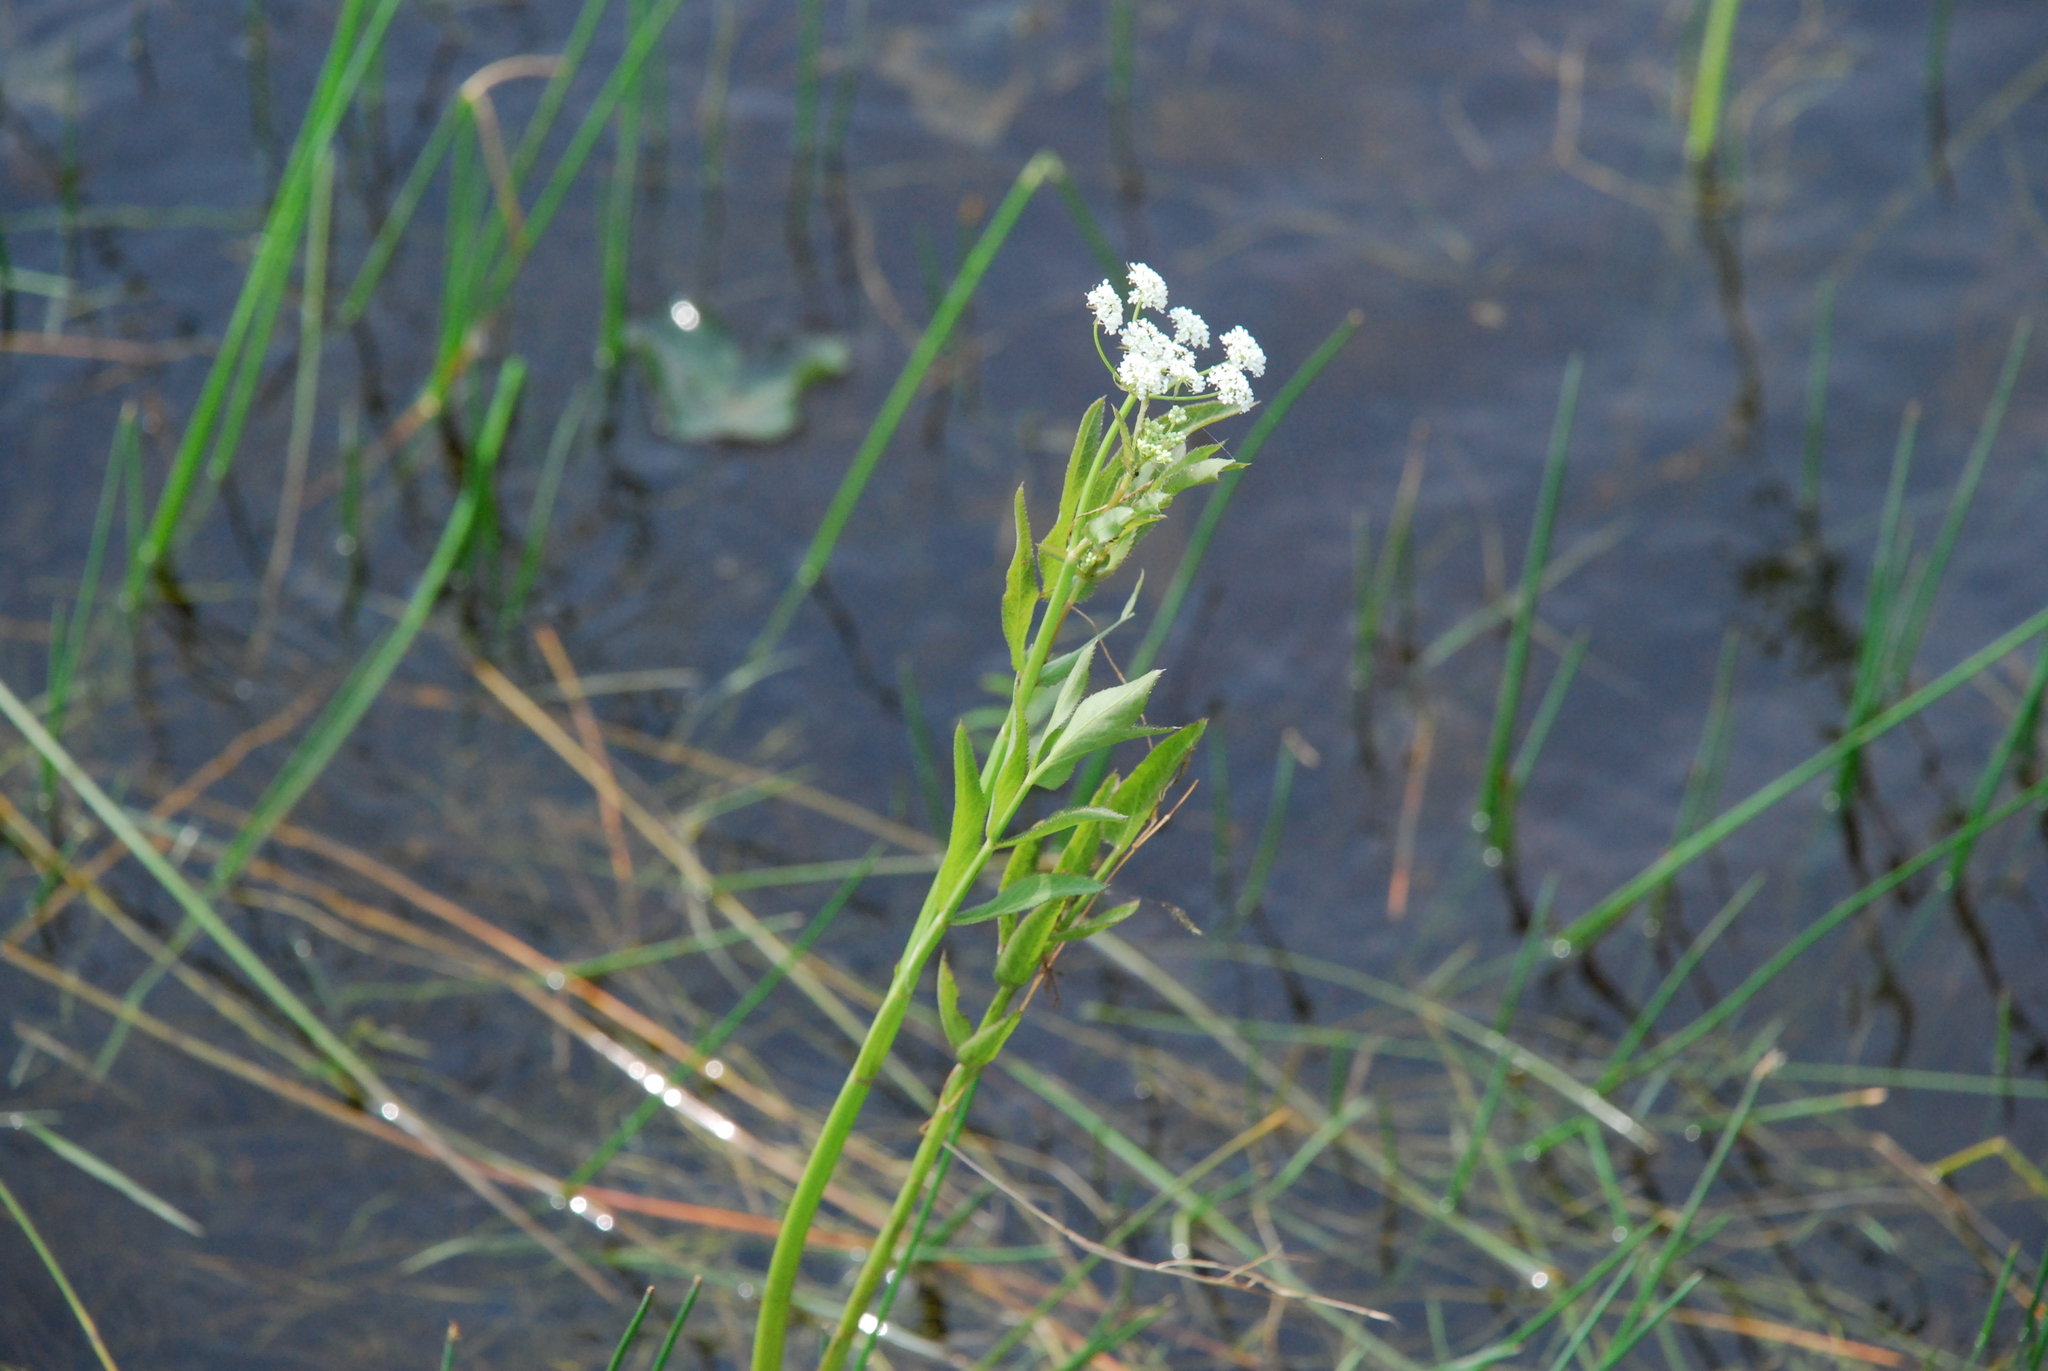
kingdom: Plantae
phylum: Tracheophyta
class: Magnoliopsida
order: Apiales
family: Apiaceae
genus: Sium
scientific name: Sium latifolium
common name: Greater water-parsnip
